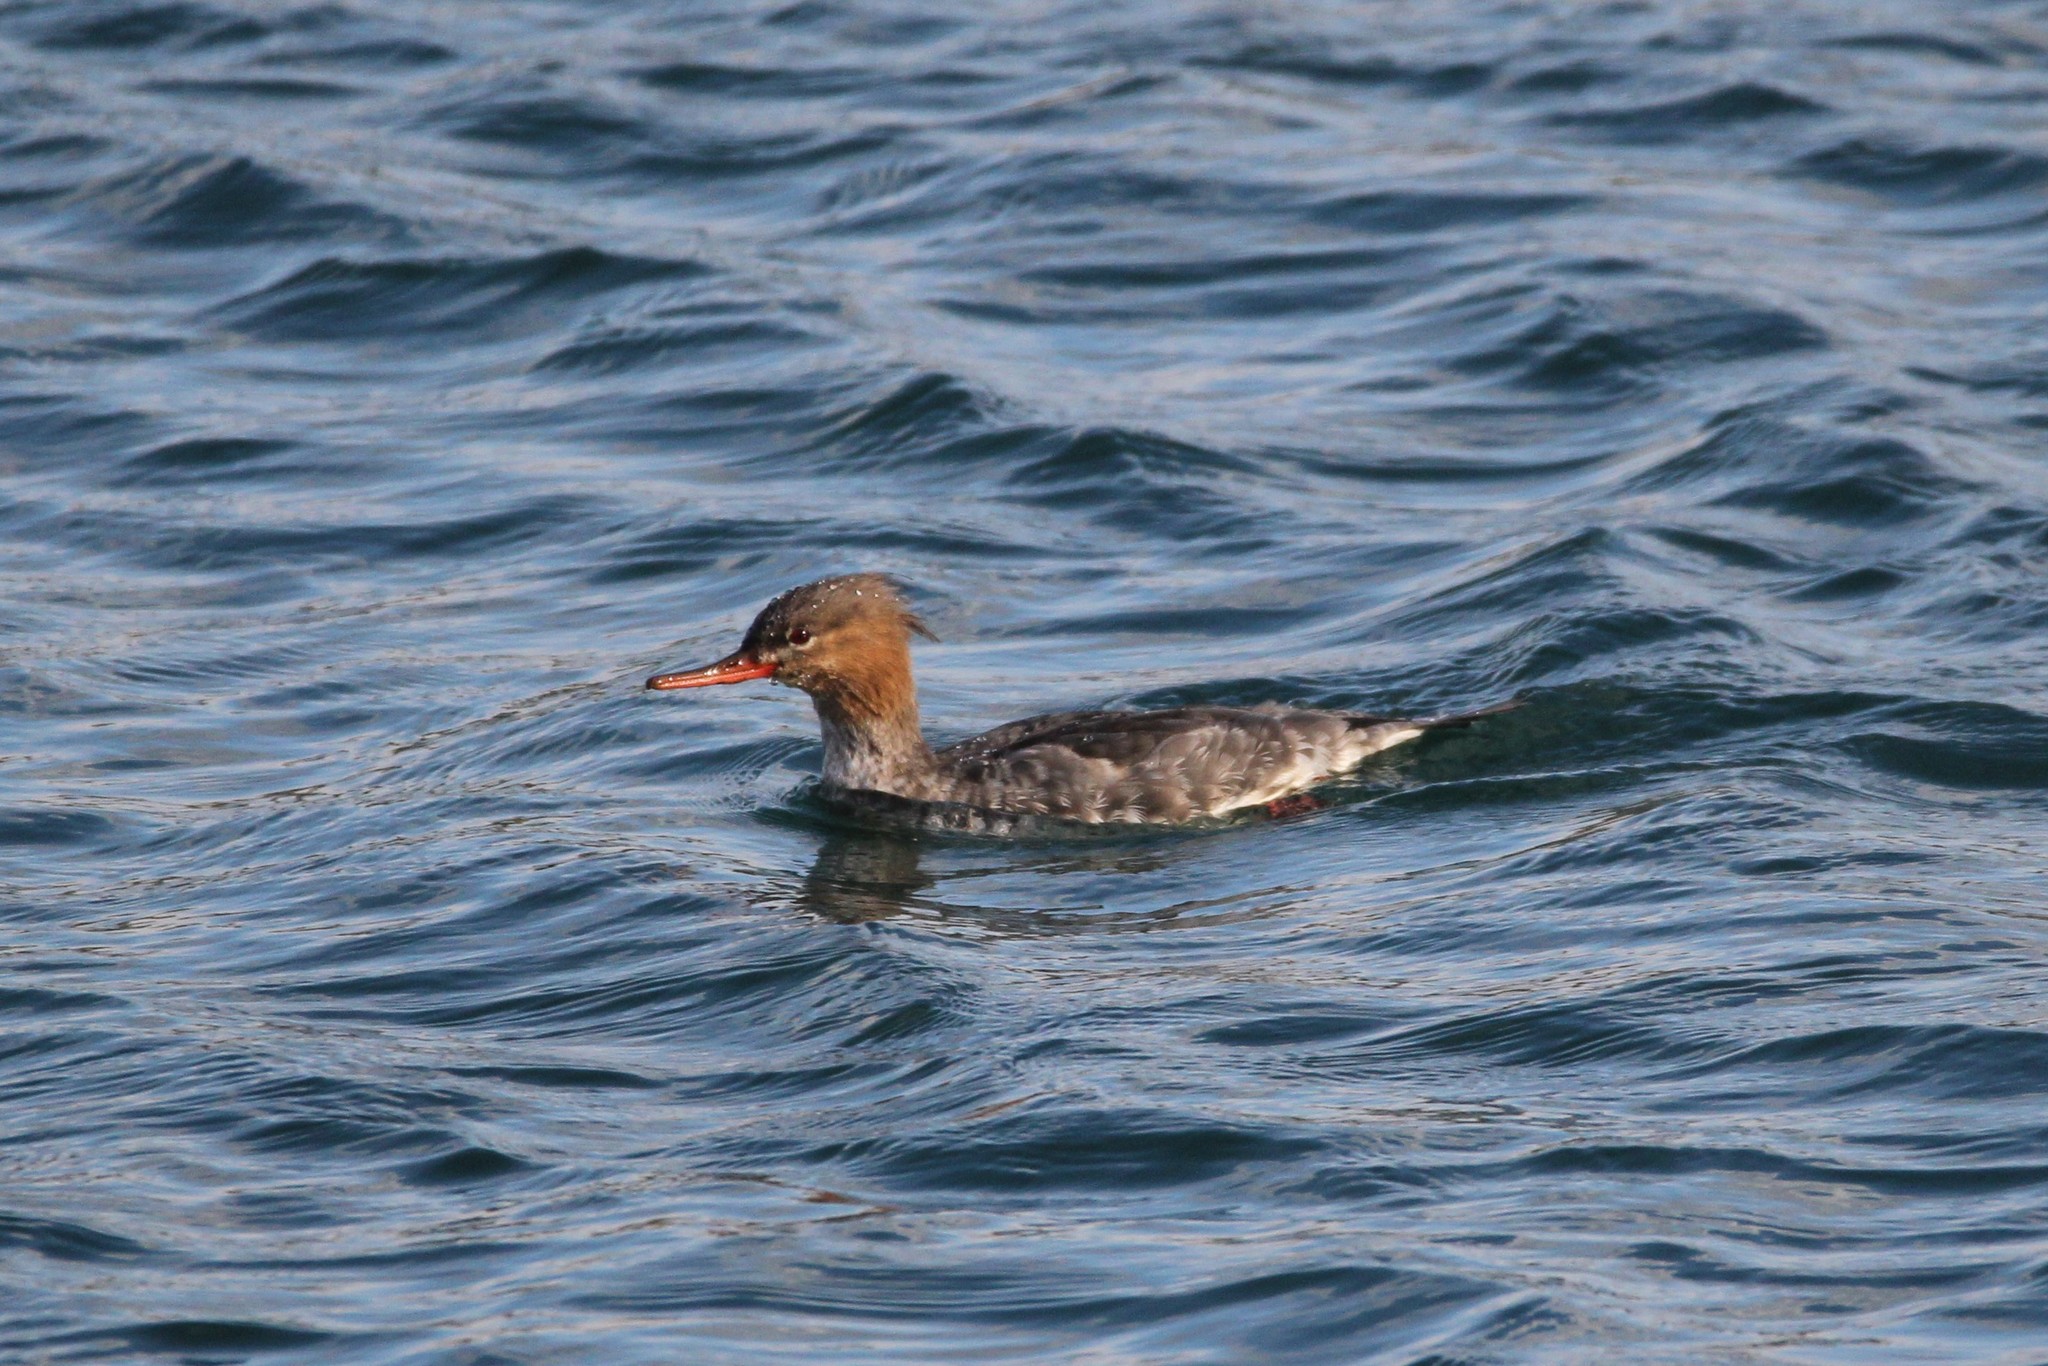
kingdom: Animalia
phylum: Chordata
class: Aves
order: Anseriformes
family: Anatidae
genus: Mergus
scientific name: Mergus serrator
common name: Red-breasted merganser
